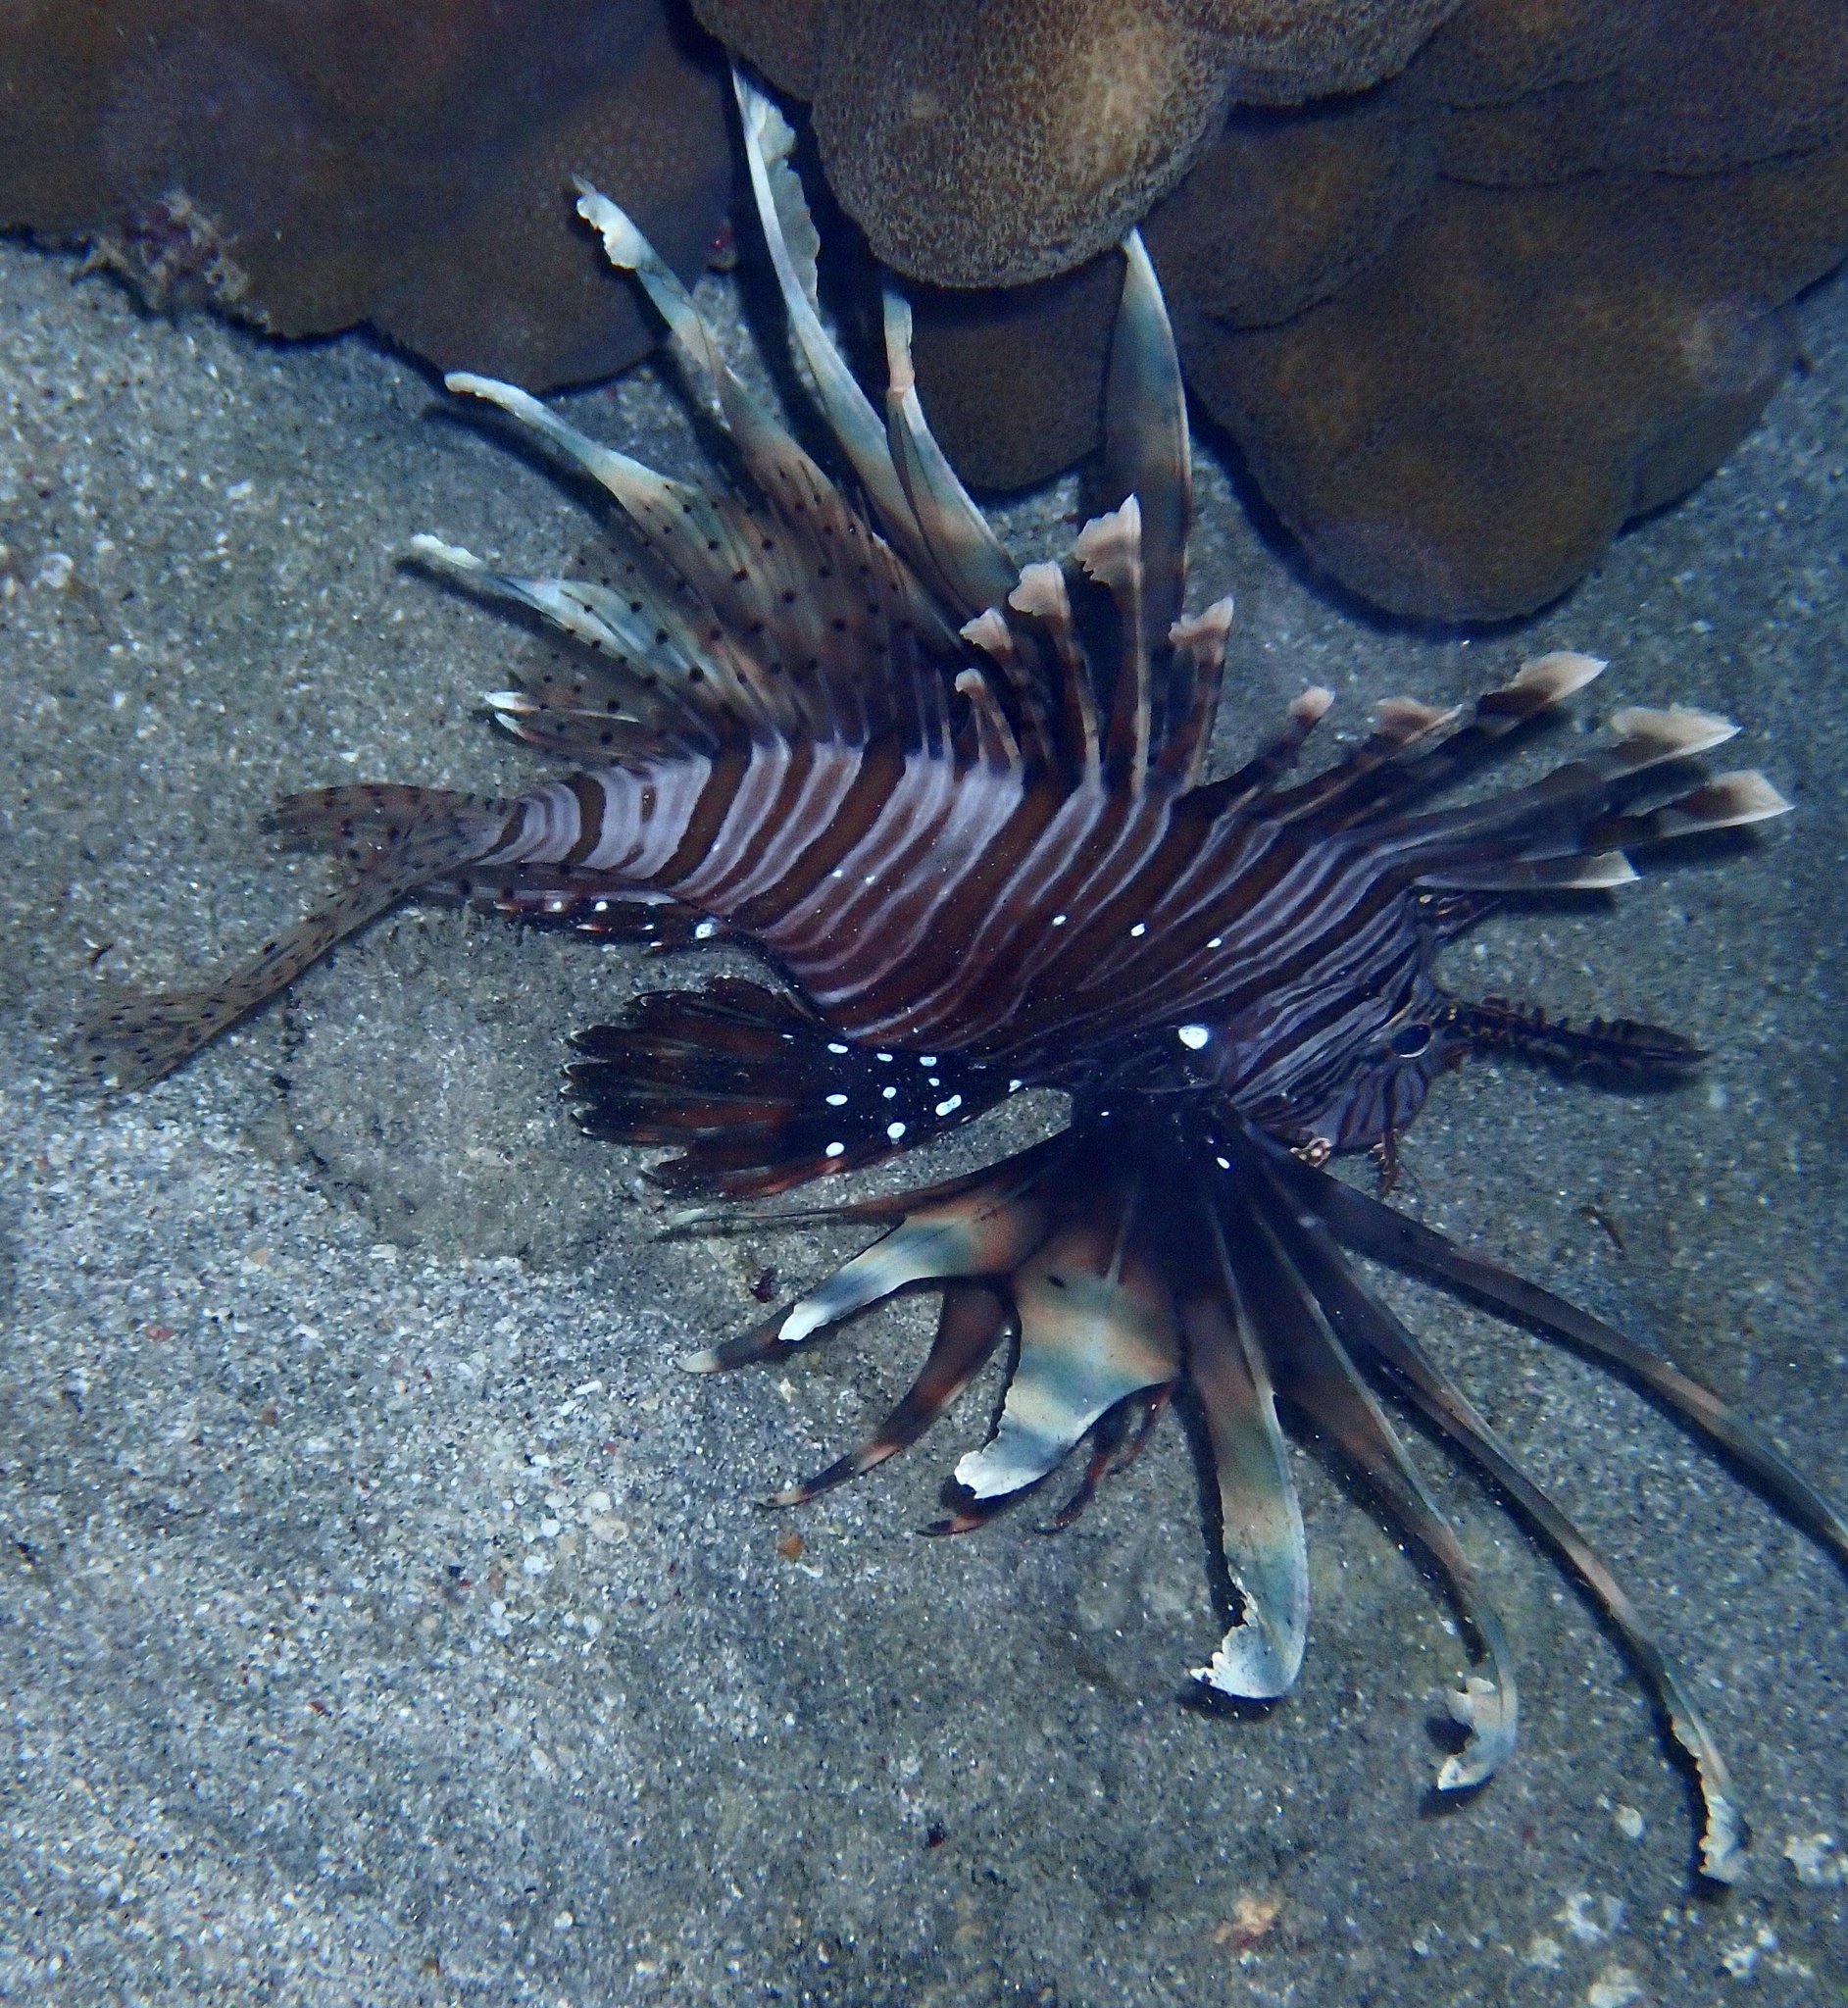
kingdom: Animalia
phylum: Chordata
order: Scorpaeniformes
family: Scorpaenidae
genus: Pterois
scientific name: Pterois miles
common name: Devil firefish
